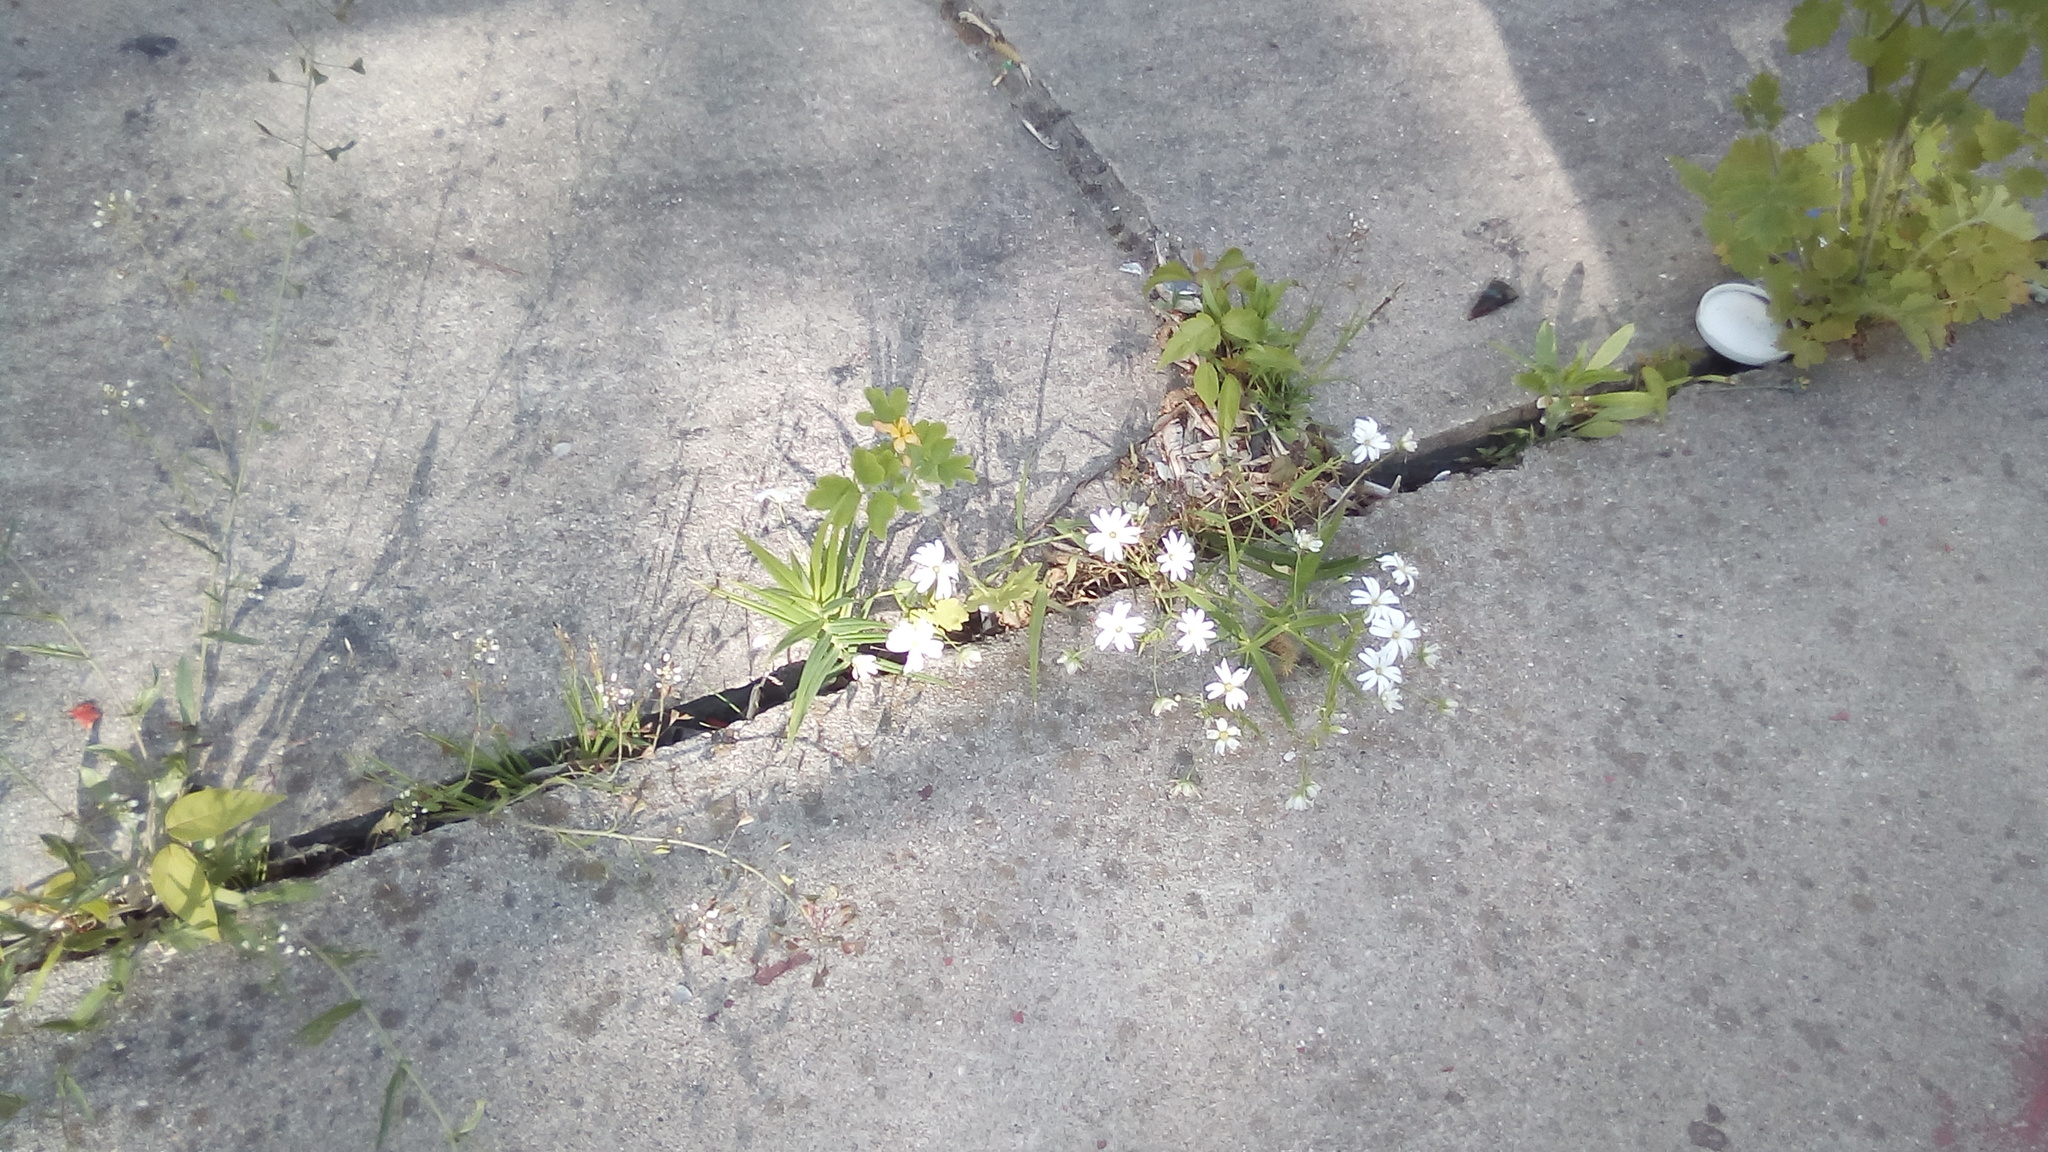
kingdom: Plantae
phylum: Tracheophyta
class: Magnoliopsida
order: Caryophyllales
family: Caryophyllaceae
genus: Rabelera
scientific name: Rabelera holostea
